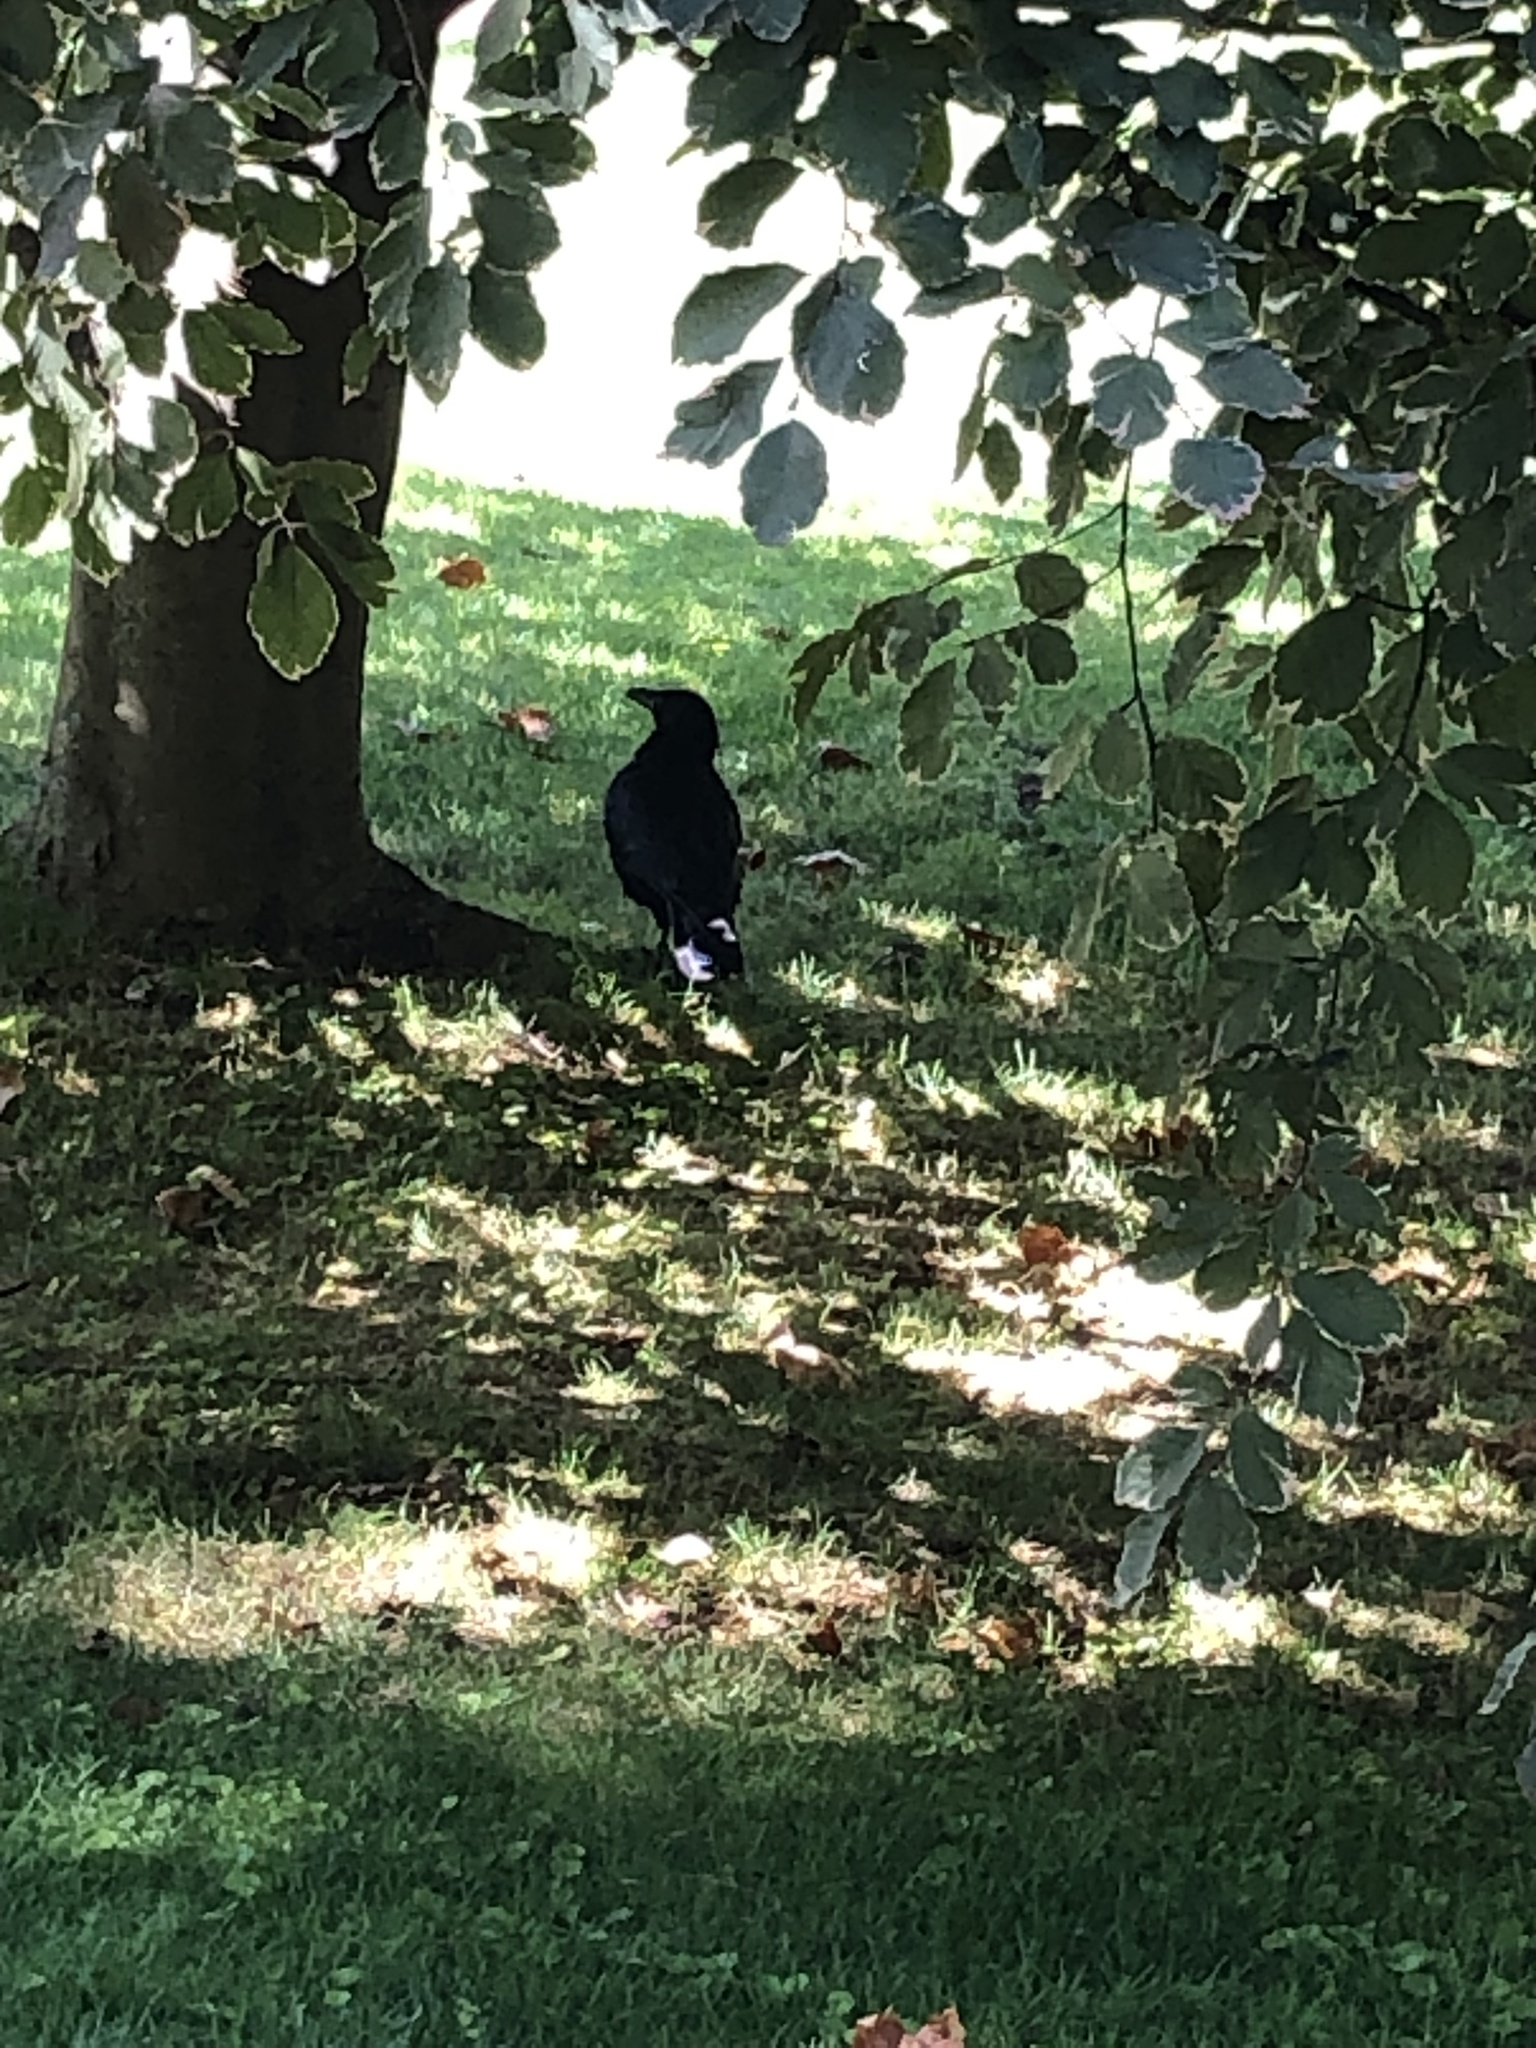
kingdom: Animalia
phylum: Chordata
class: Aves
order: Passeriformes
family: Corvidae
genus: Corvus
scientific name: Corvus corone
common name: Carrion crow
